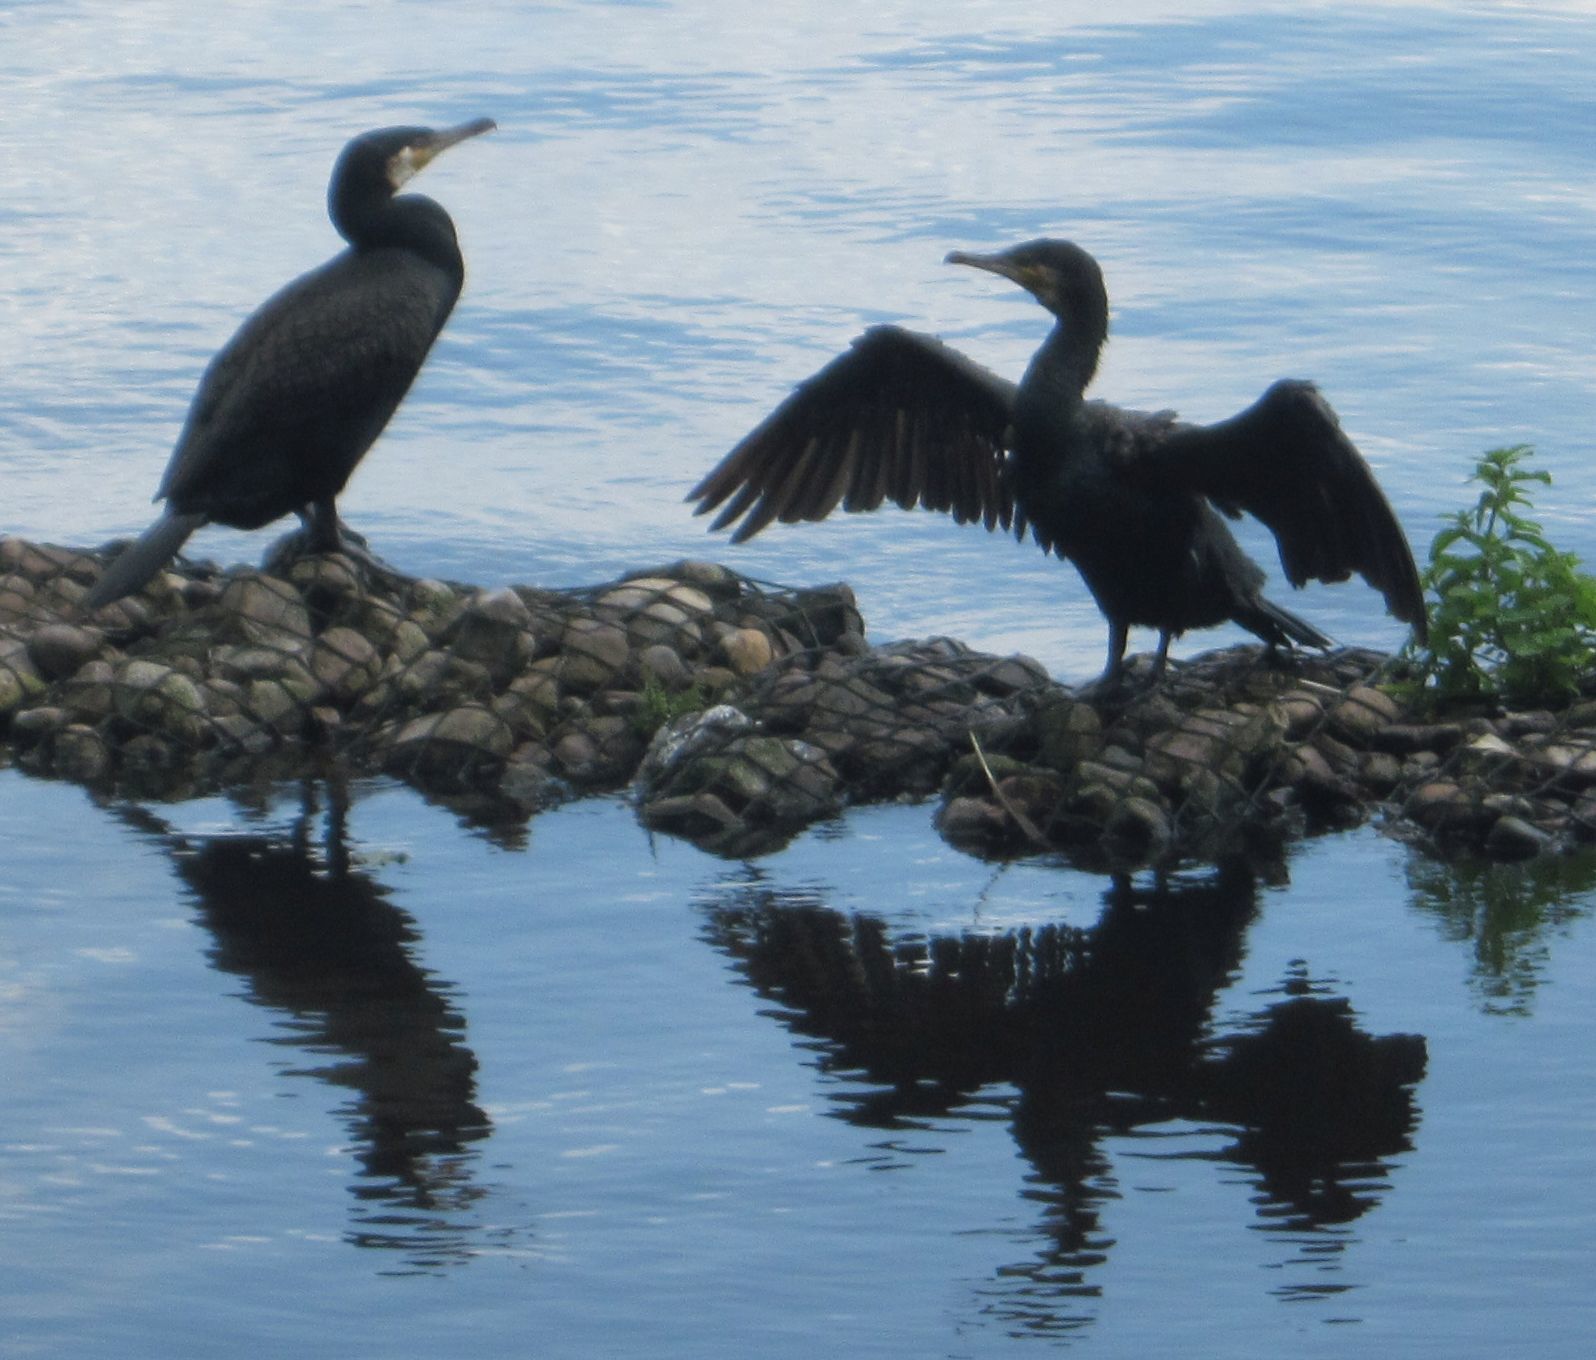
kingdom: Animalia
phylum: Chordata
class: Aves
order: Suliformes
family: Phalacrocoracidae
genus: Phalacrocorax
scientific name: Phalacrocorax carbo
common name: Great cormorant
